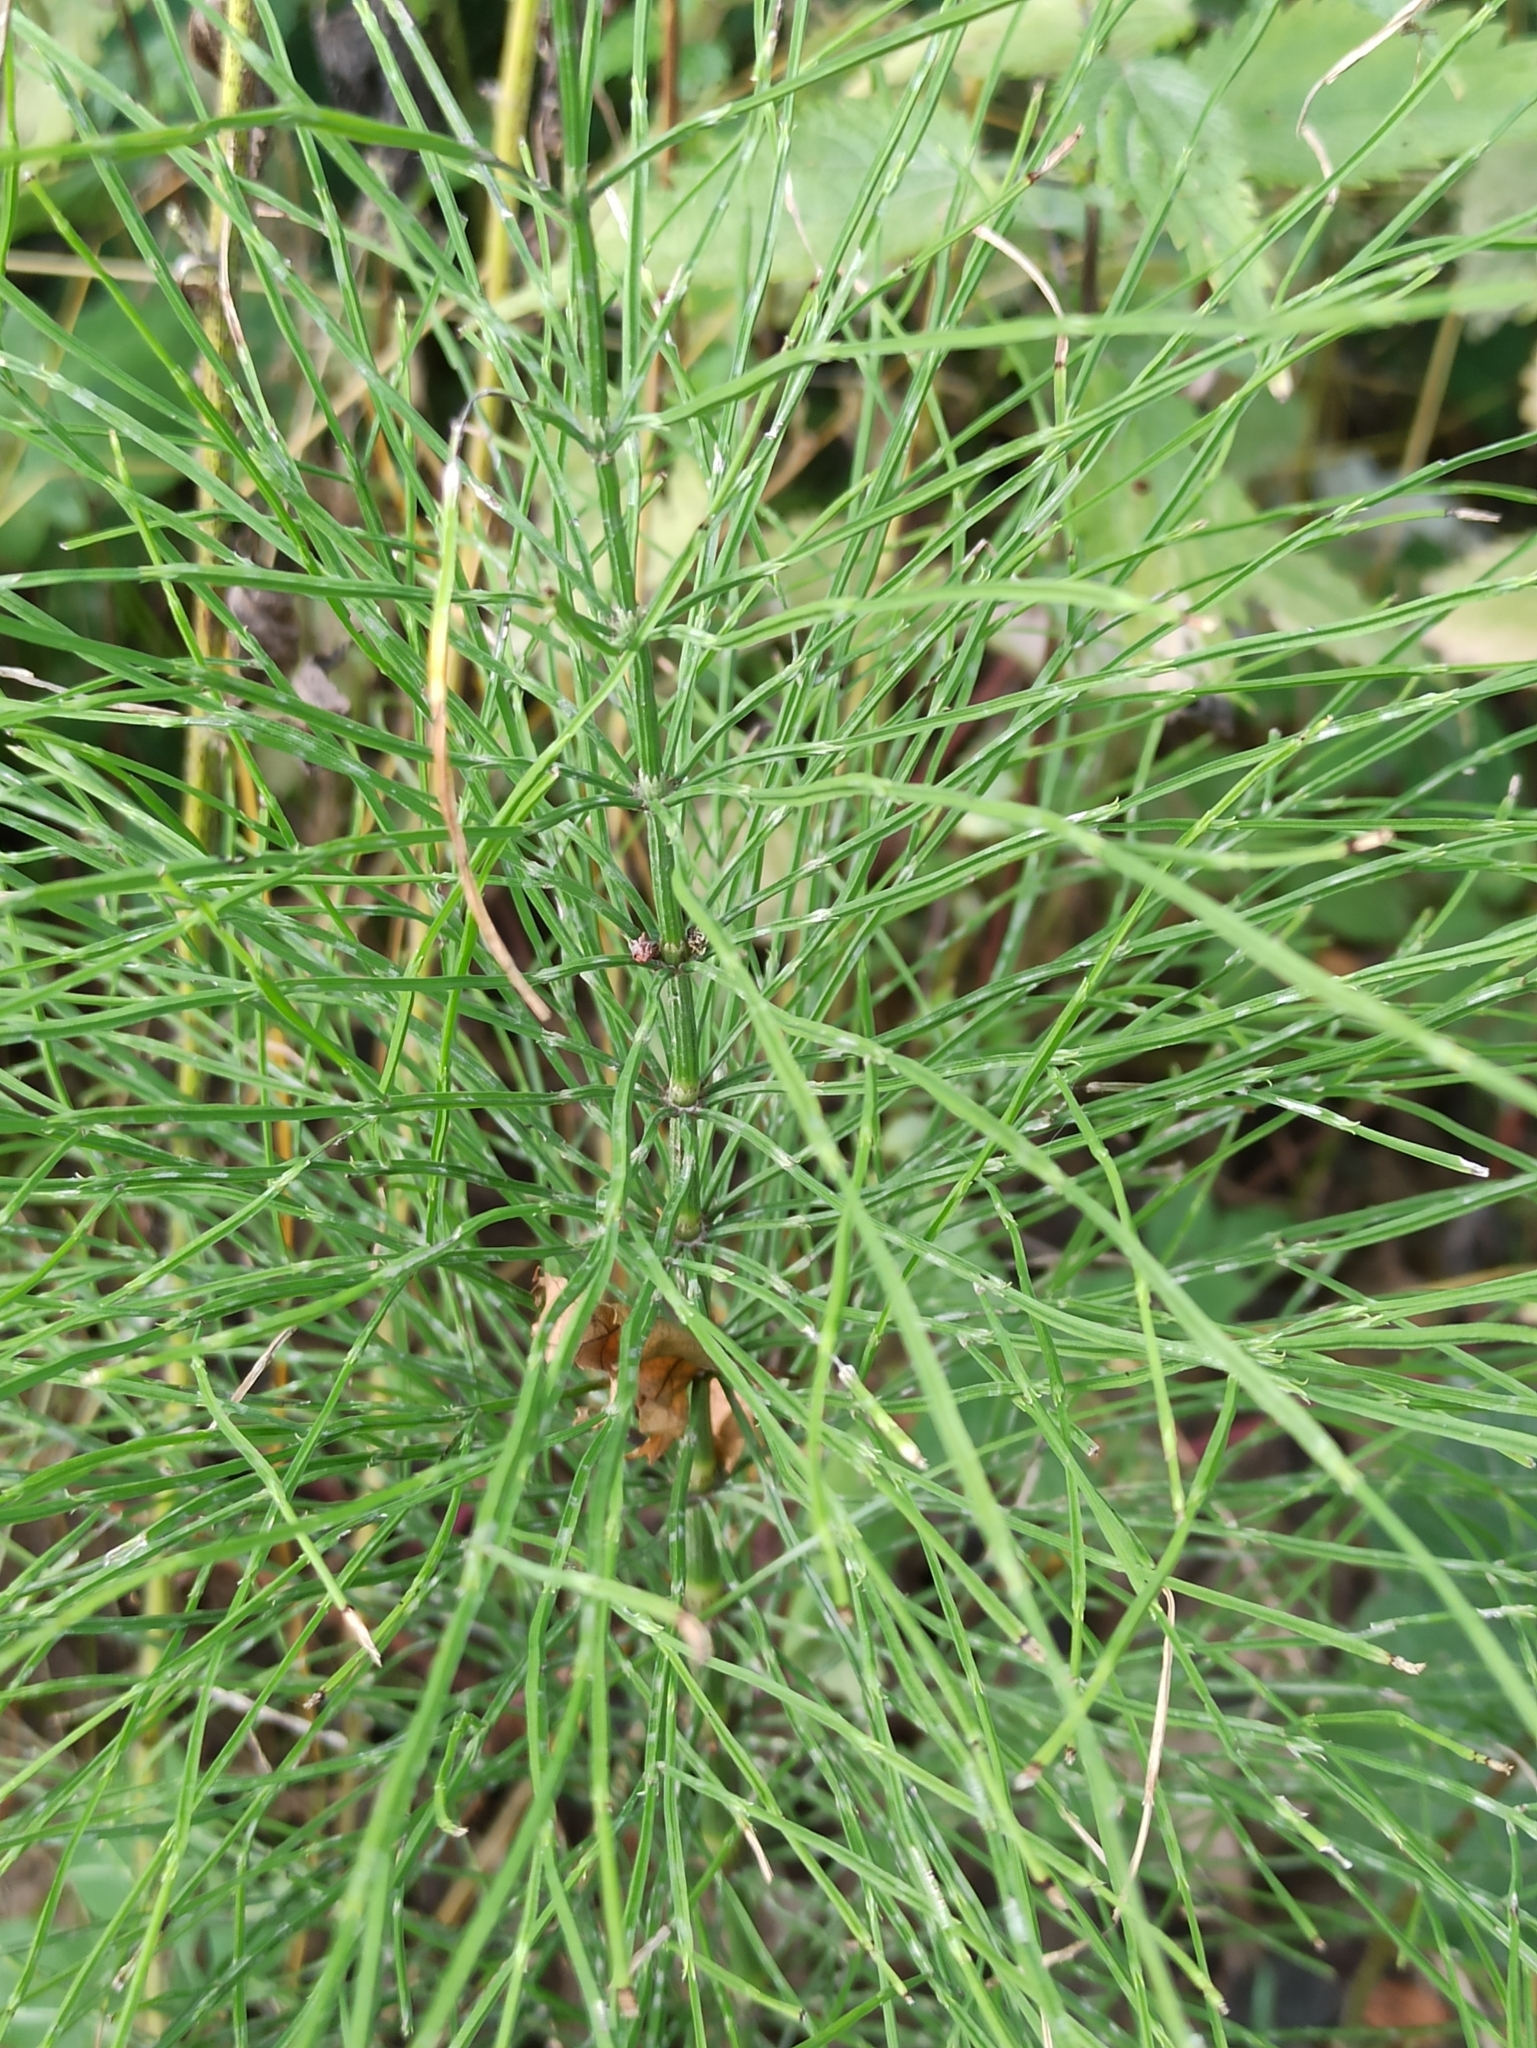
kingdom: Plantae
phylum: Tracheophyta
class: Polypodiopsida
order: Equisetales
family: Equisetaceae
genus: Equisetum
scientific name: Equisetum arvense
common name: Field horsetail
